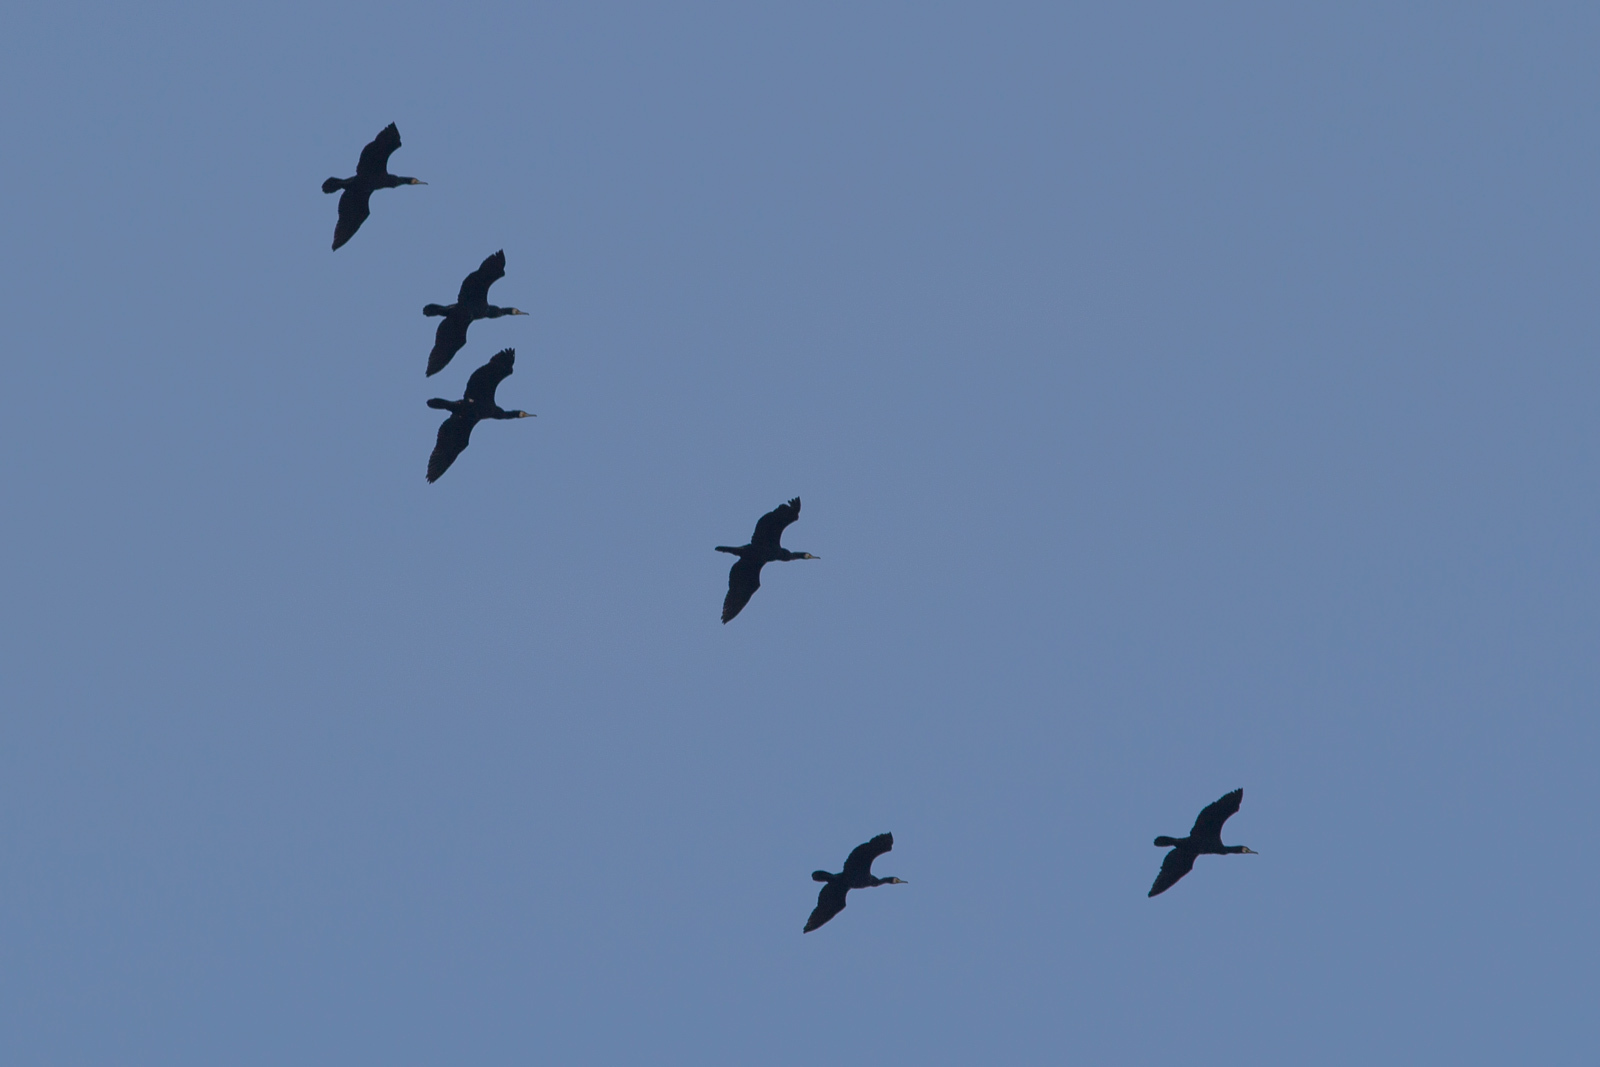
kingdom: Animalia
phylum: Chordata
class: Aves
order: Suliformes
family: Phalacrocoracidae
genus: Phalacrocorax
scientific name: Phalacrocorax carbo
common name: Great cormorant
